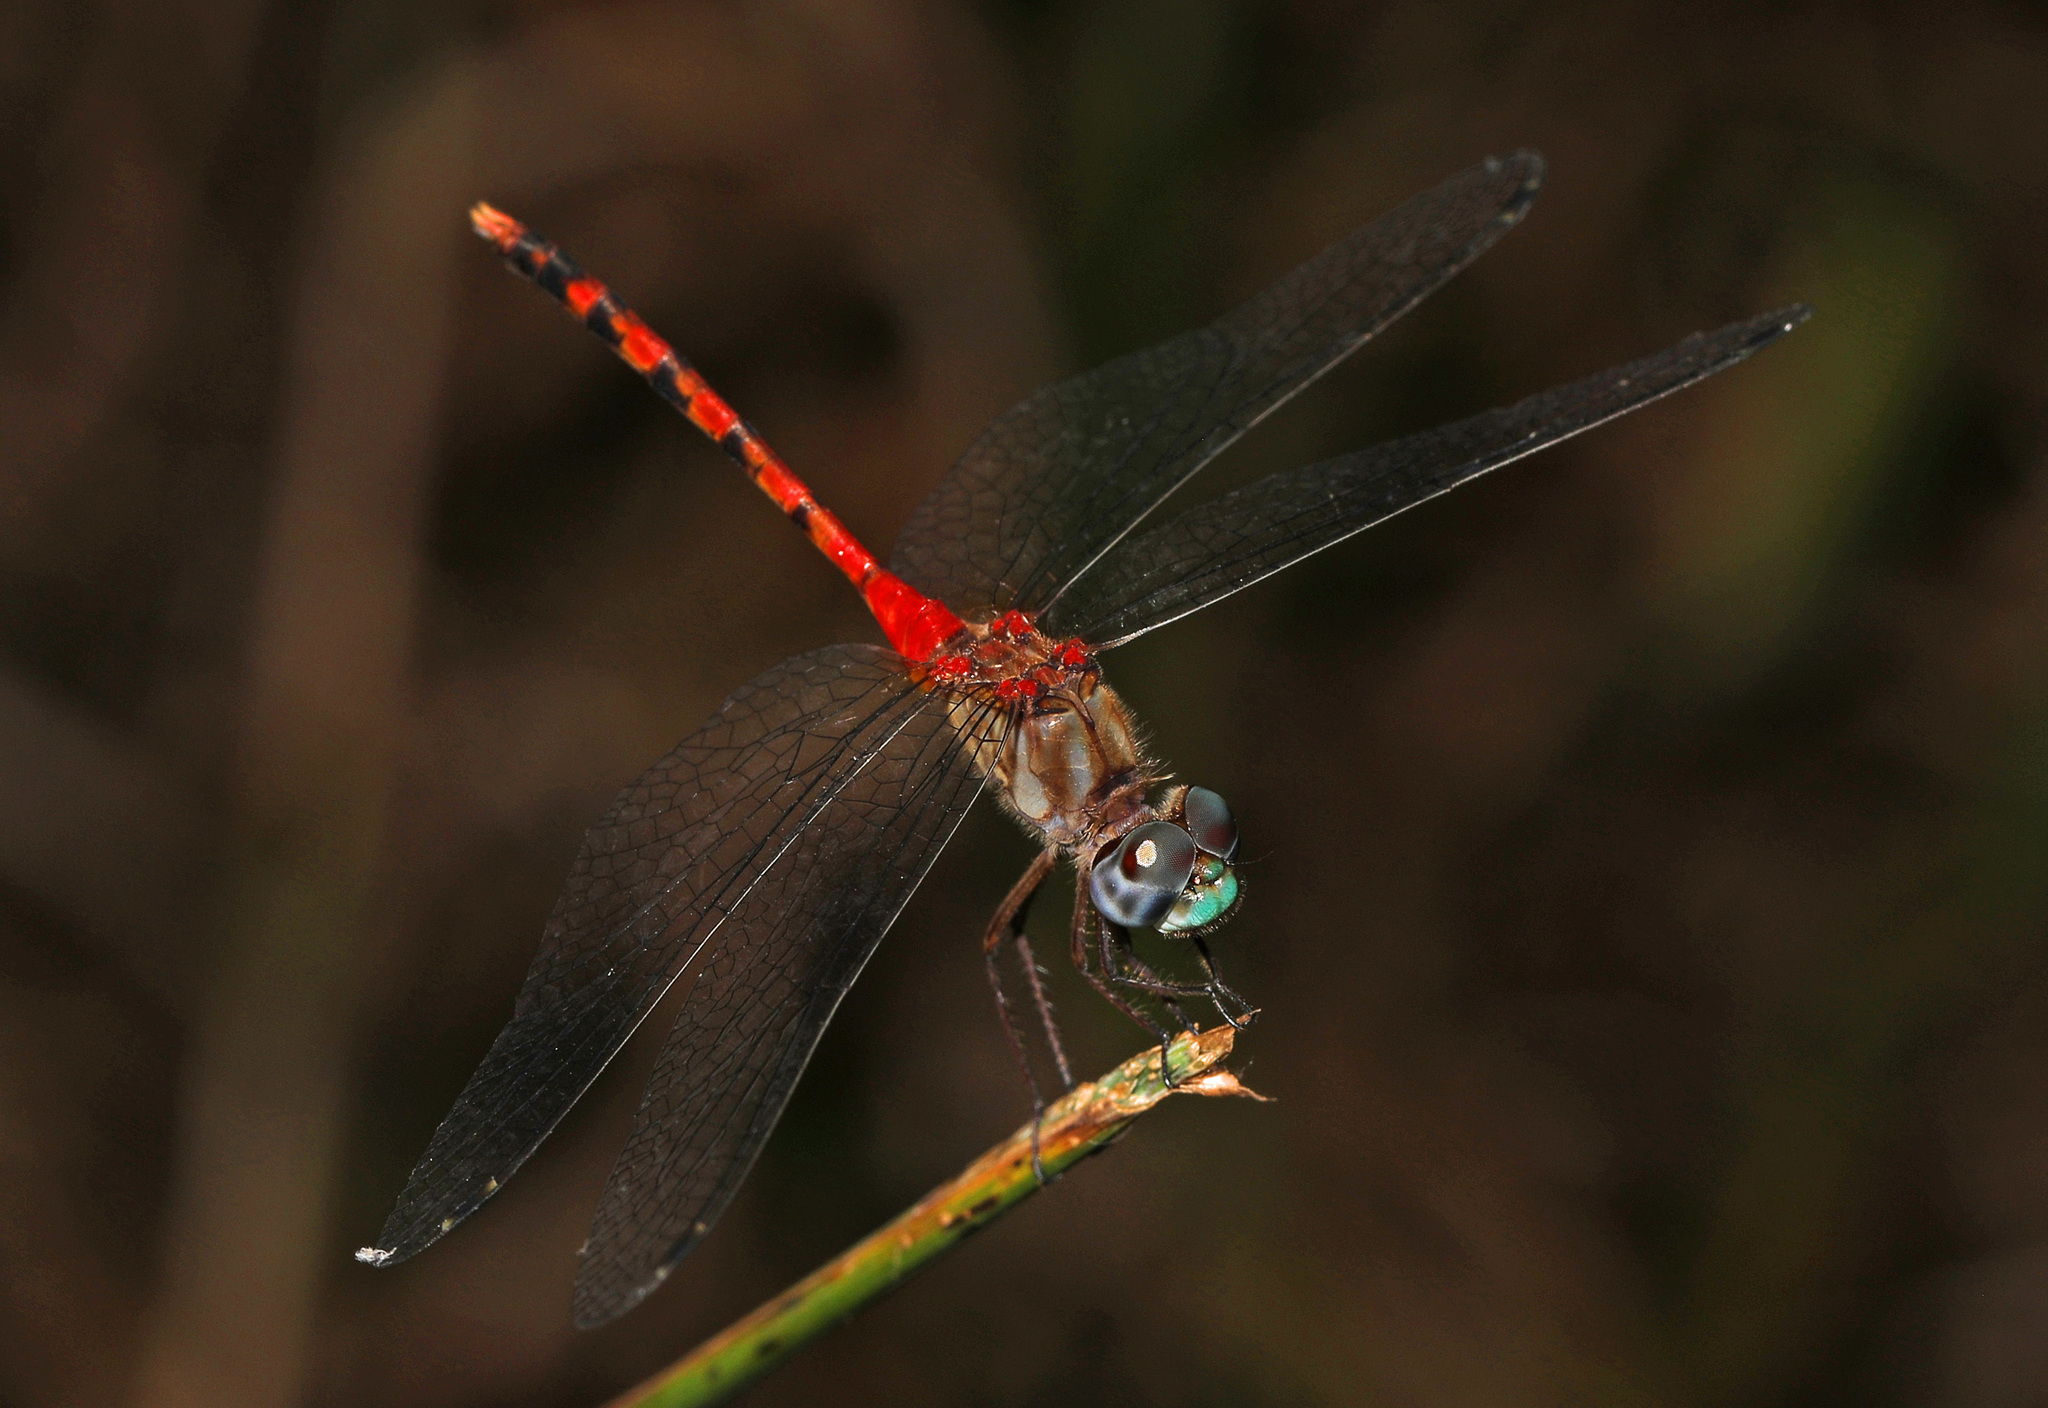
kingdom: Animalia
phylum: Arthropoda
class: Insecta
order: Odonata
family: Libellulidae
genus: Sympetrum
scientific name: Sympetrum ambiguum
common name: Blue-faced meadowhawk
